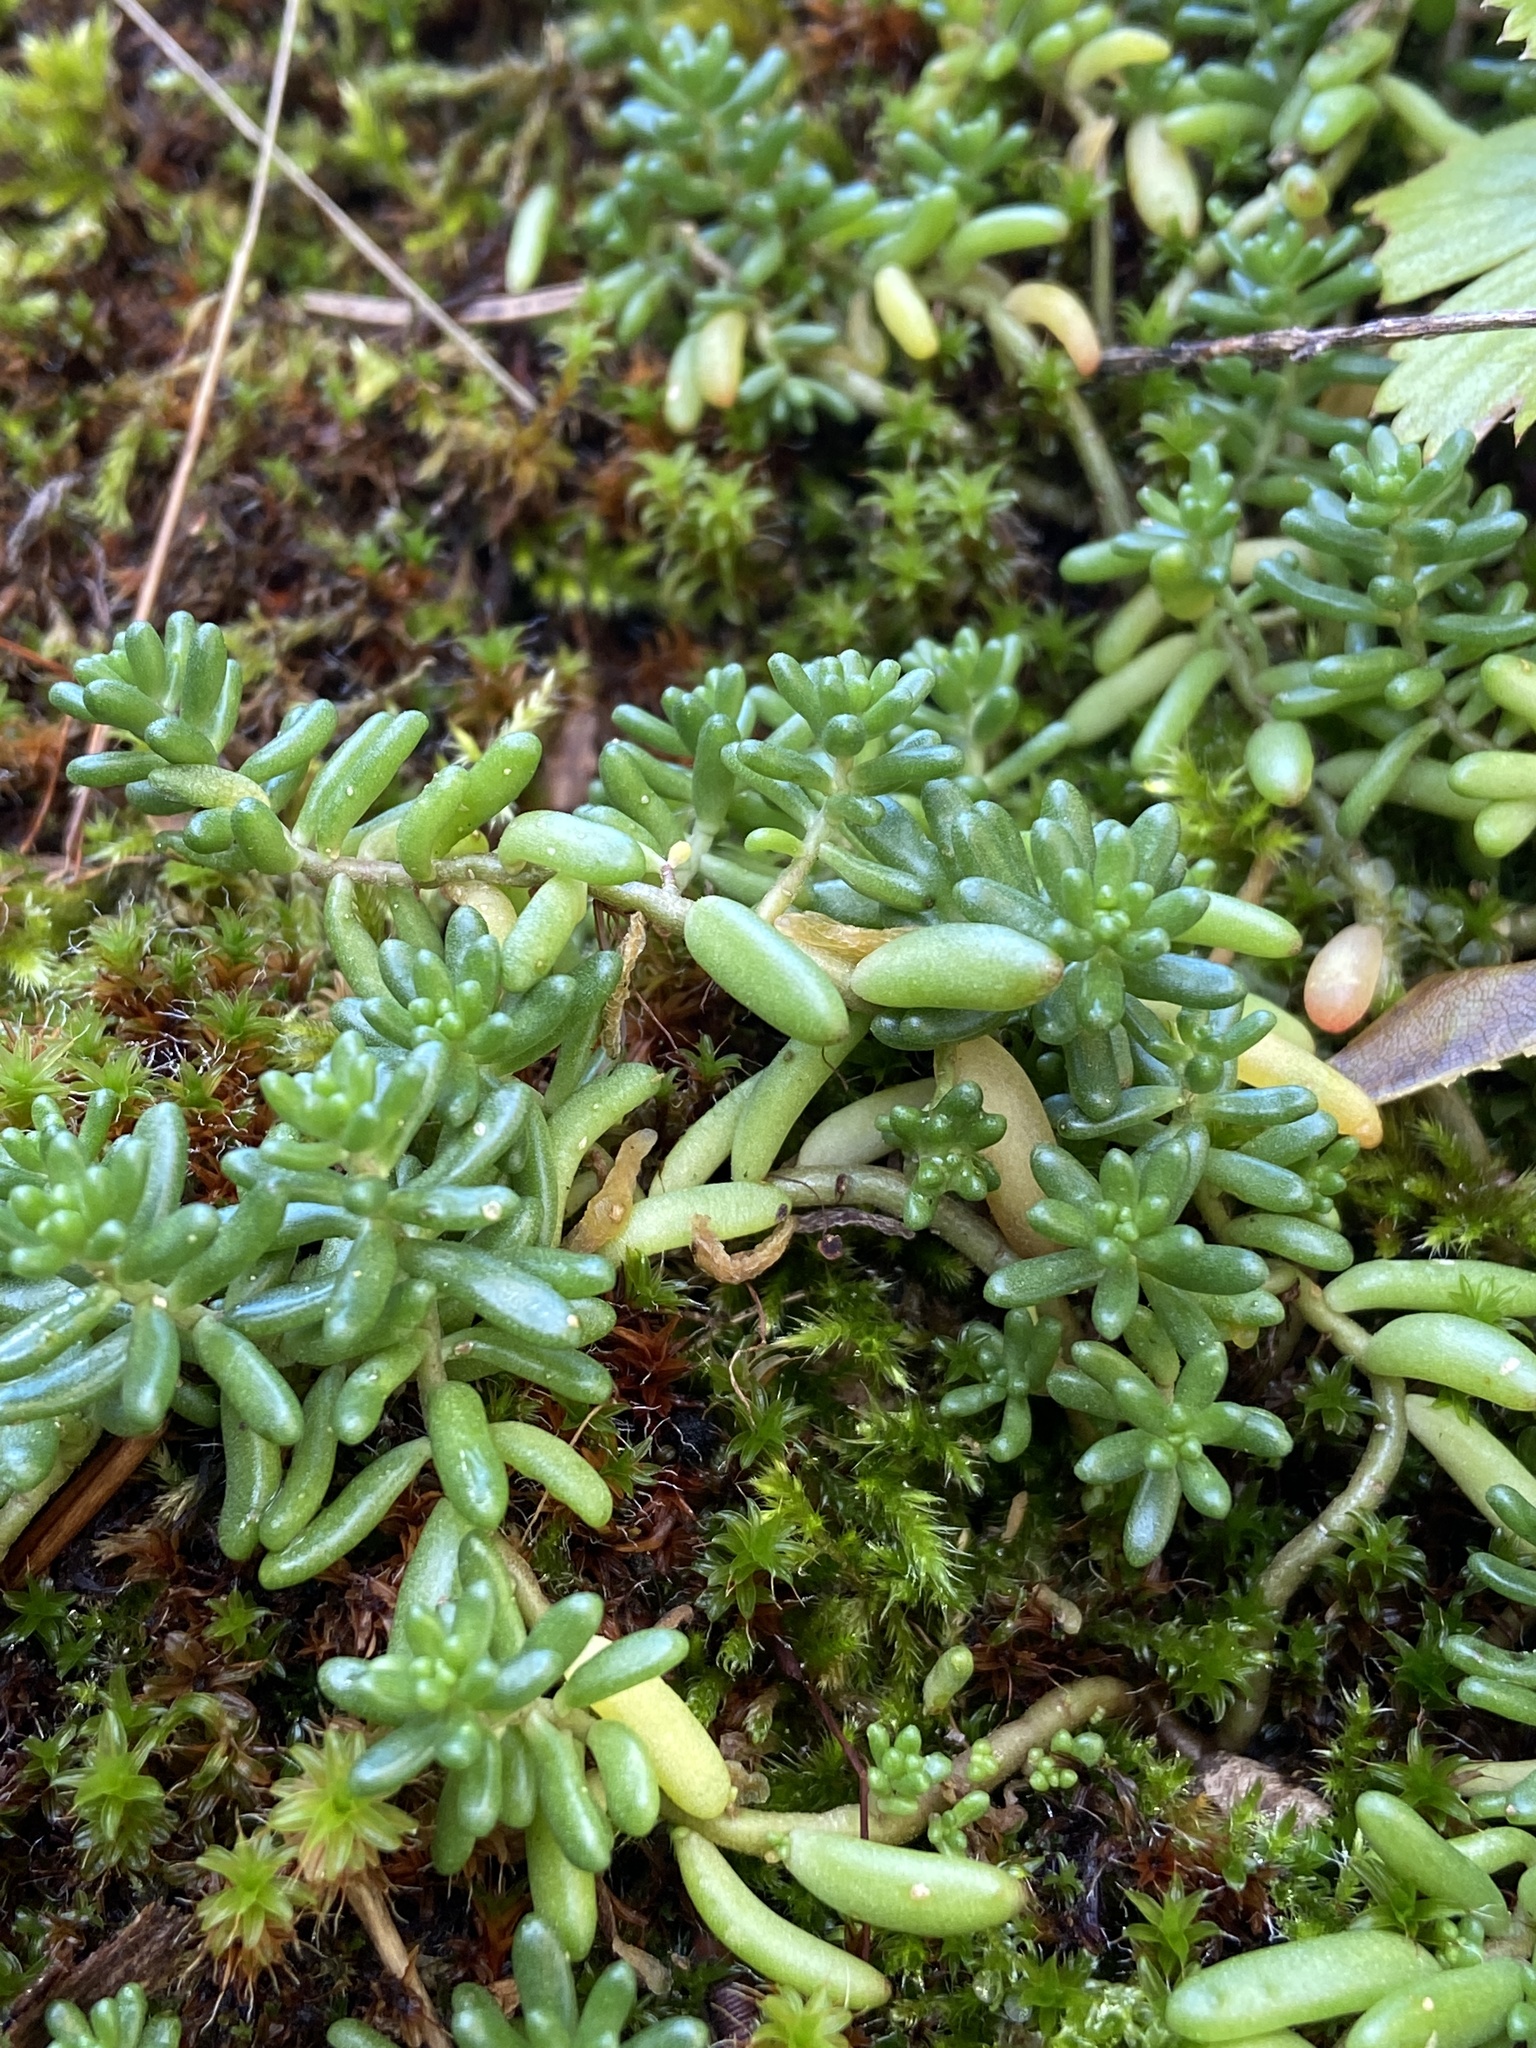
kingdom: Plantae
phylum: Tracheophyta
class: Magnoliopsida
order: Saxifragales
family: Crassulaceae
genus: Sedum
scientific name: Sedum album
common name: White stonecrop
